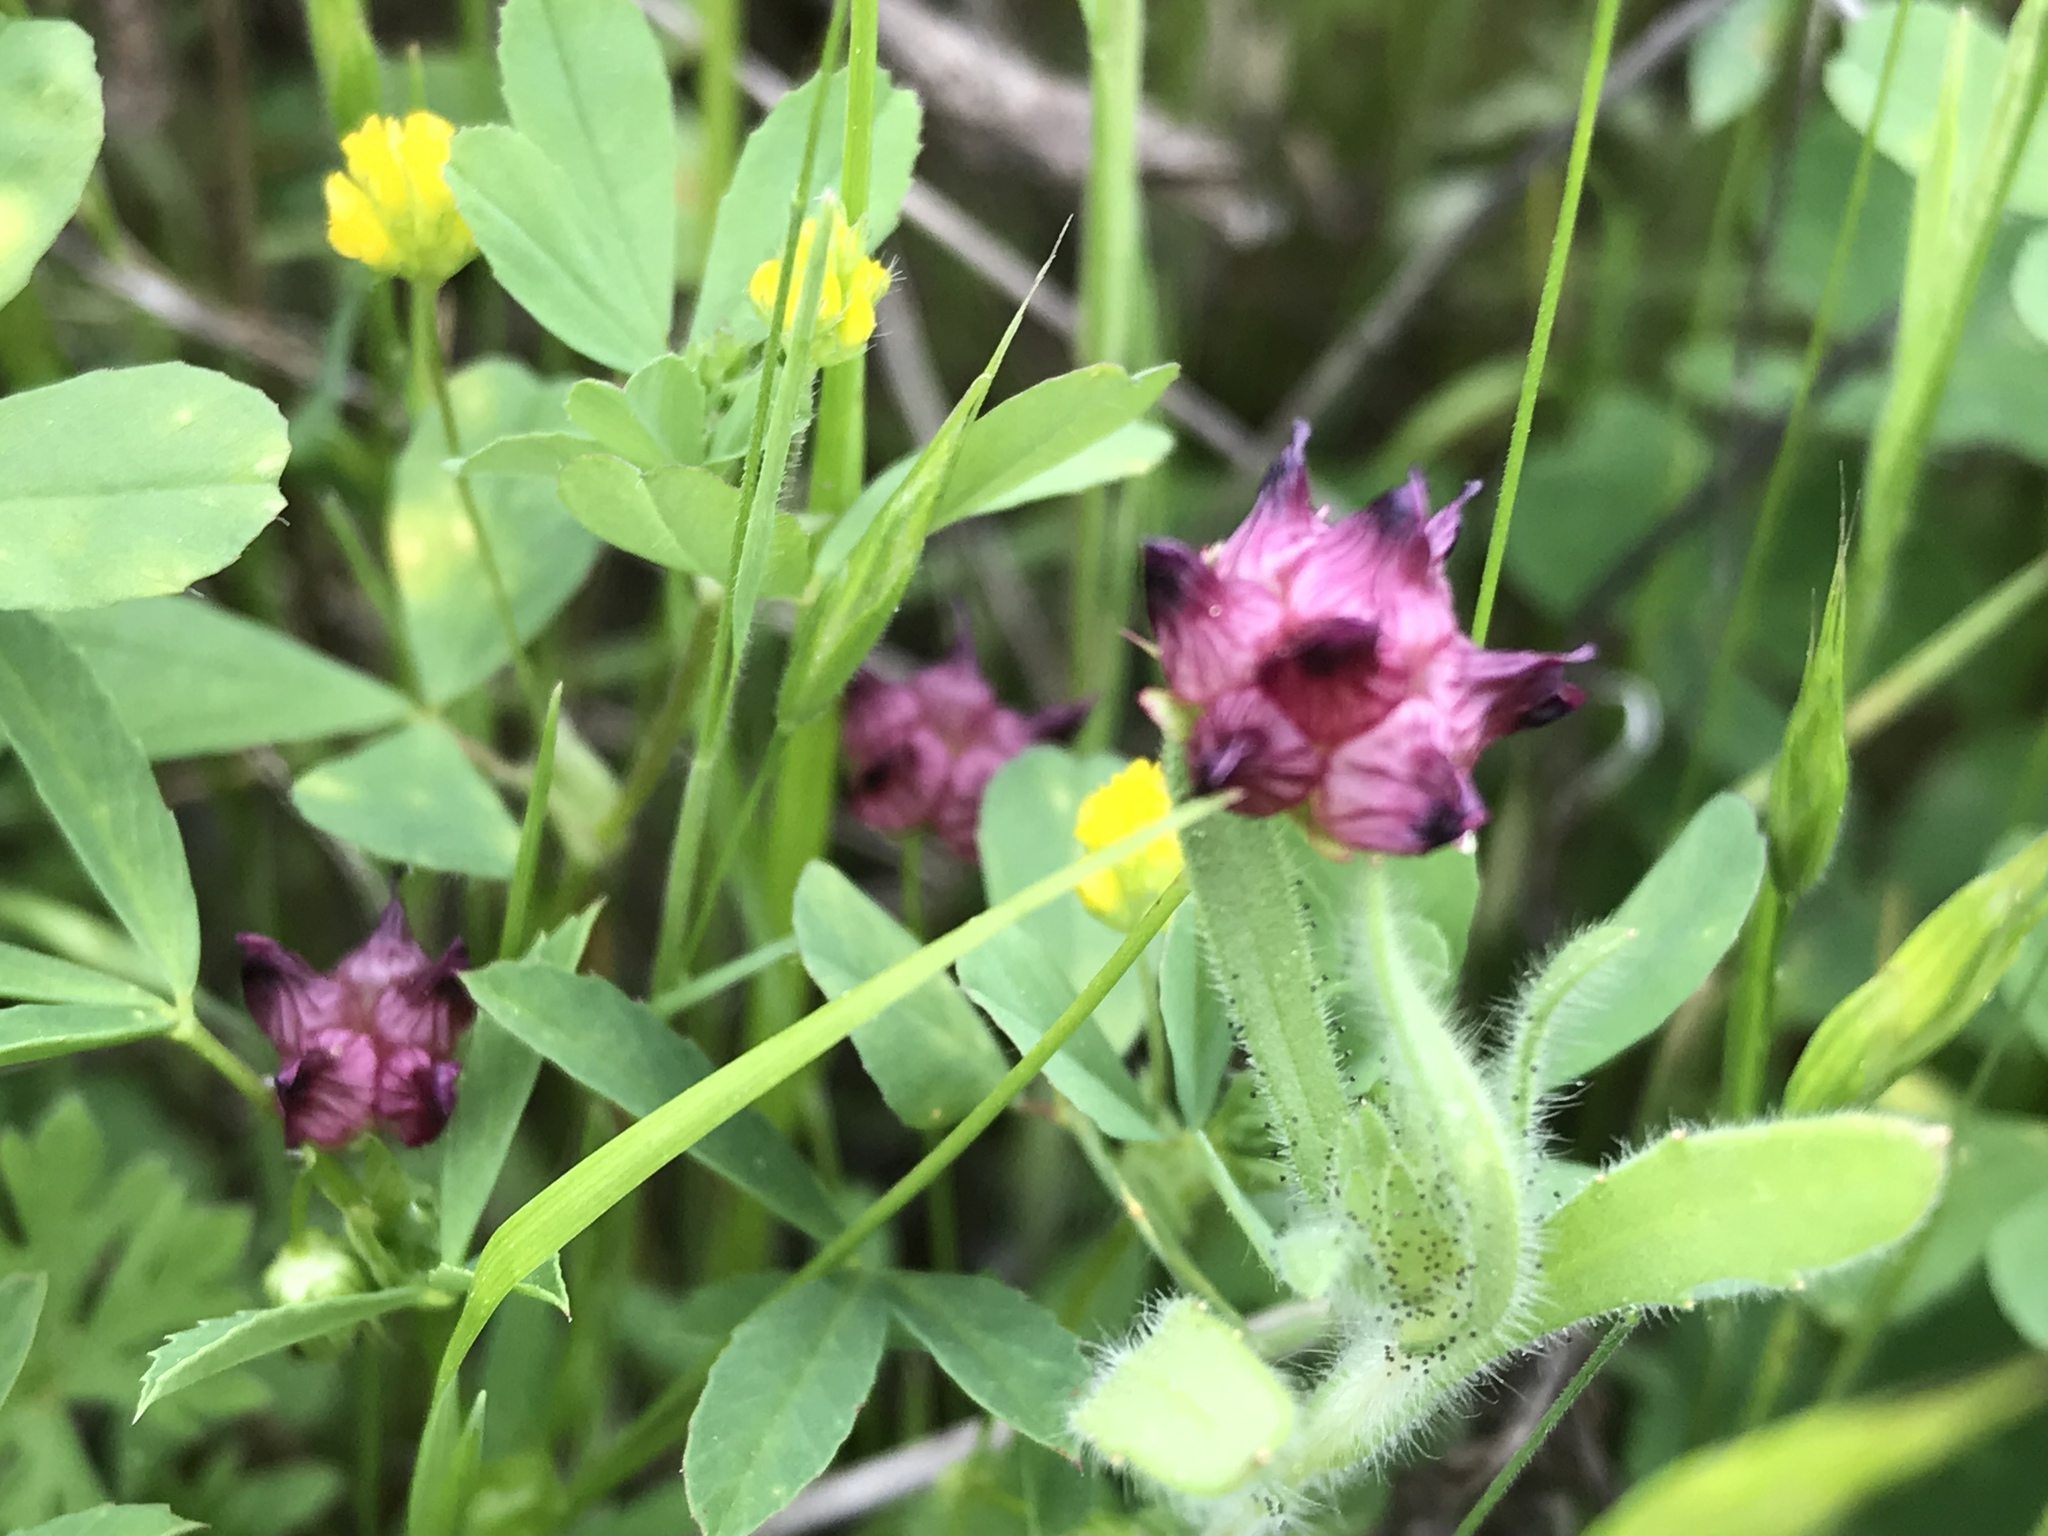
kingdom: Plantae
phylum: Tracheophyta
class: Magnoliopsida
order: Fabales
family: Fabaceae
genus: Trifolium
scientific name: Trifolium depauperatum
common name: Poverty clover
